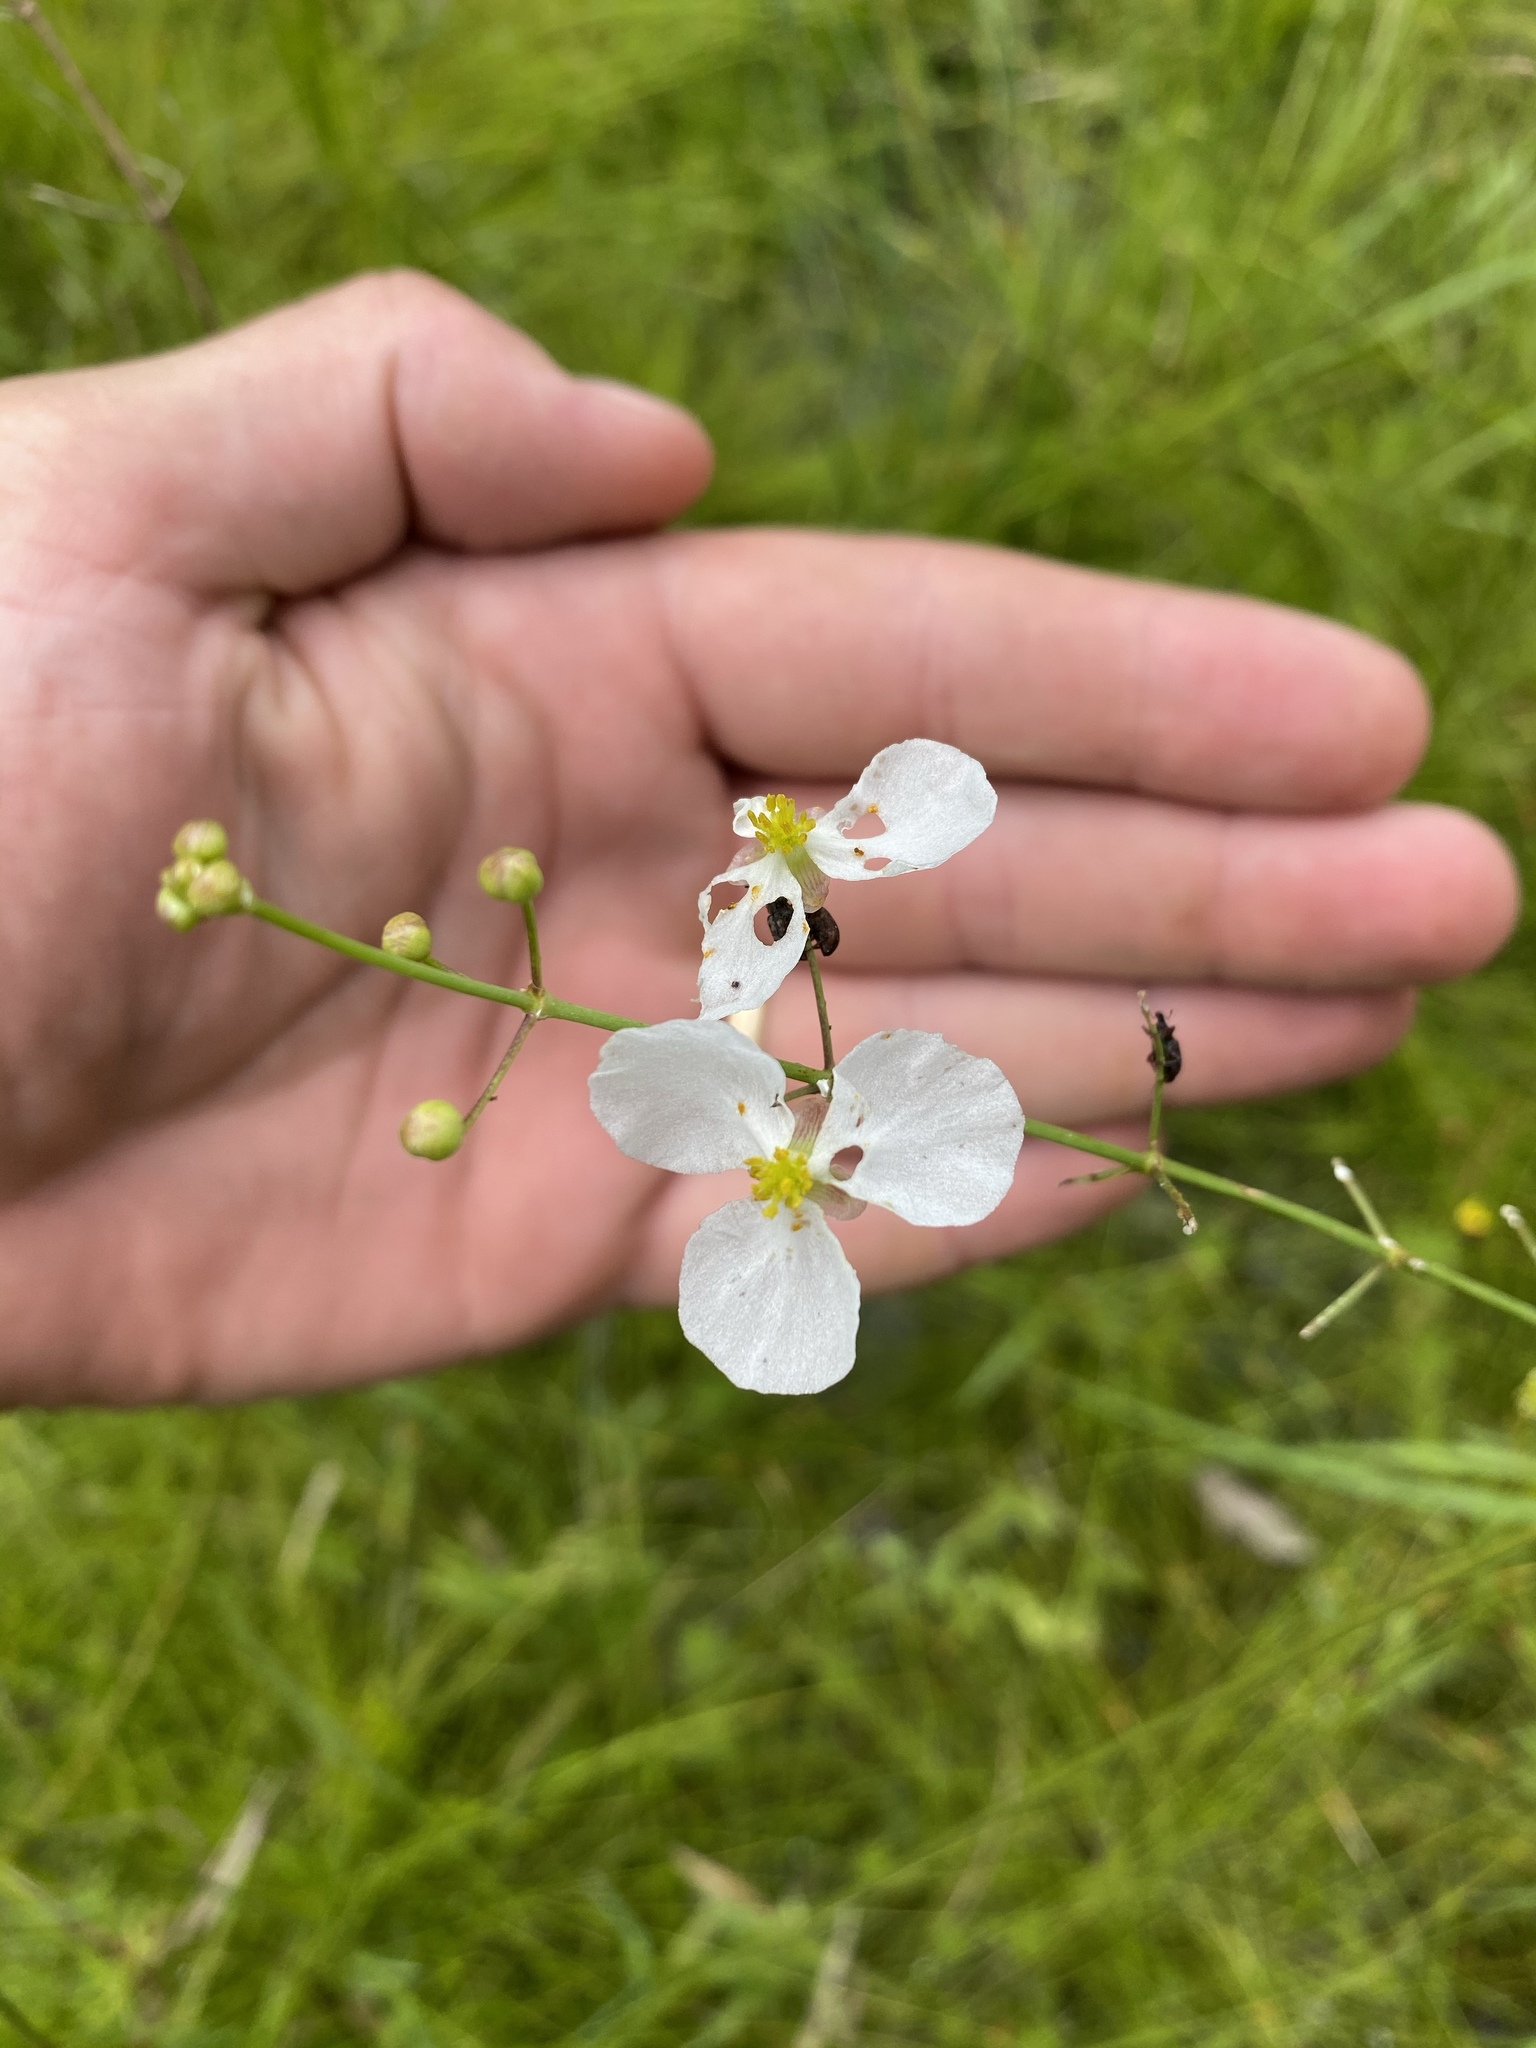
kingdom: Plantae
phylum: Tracheophyta
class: Liliopsida
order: Alismatales
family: Alismataceae
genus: Sagittaria
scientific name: Sagittaria lancifolia
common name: Lance-leaf arrowhead
